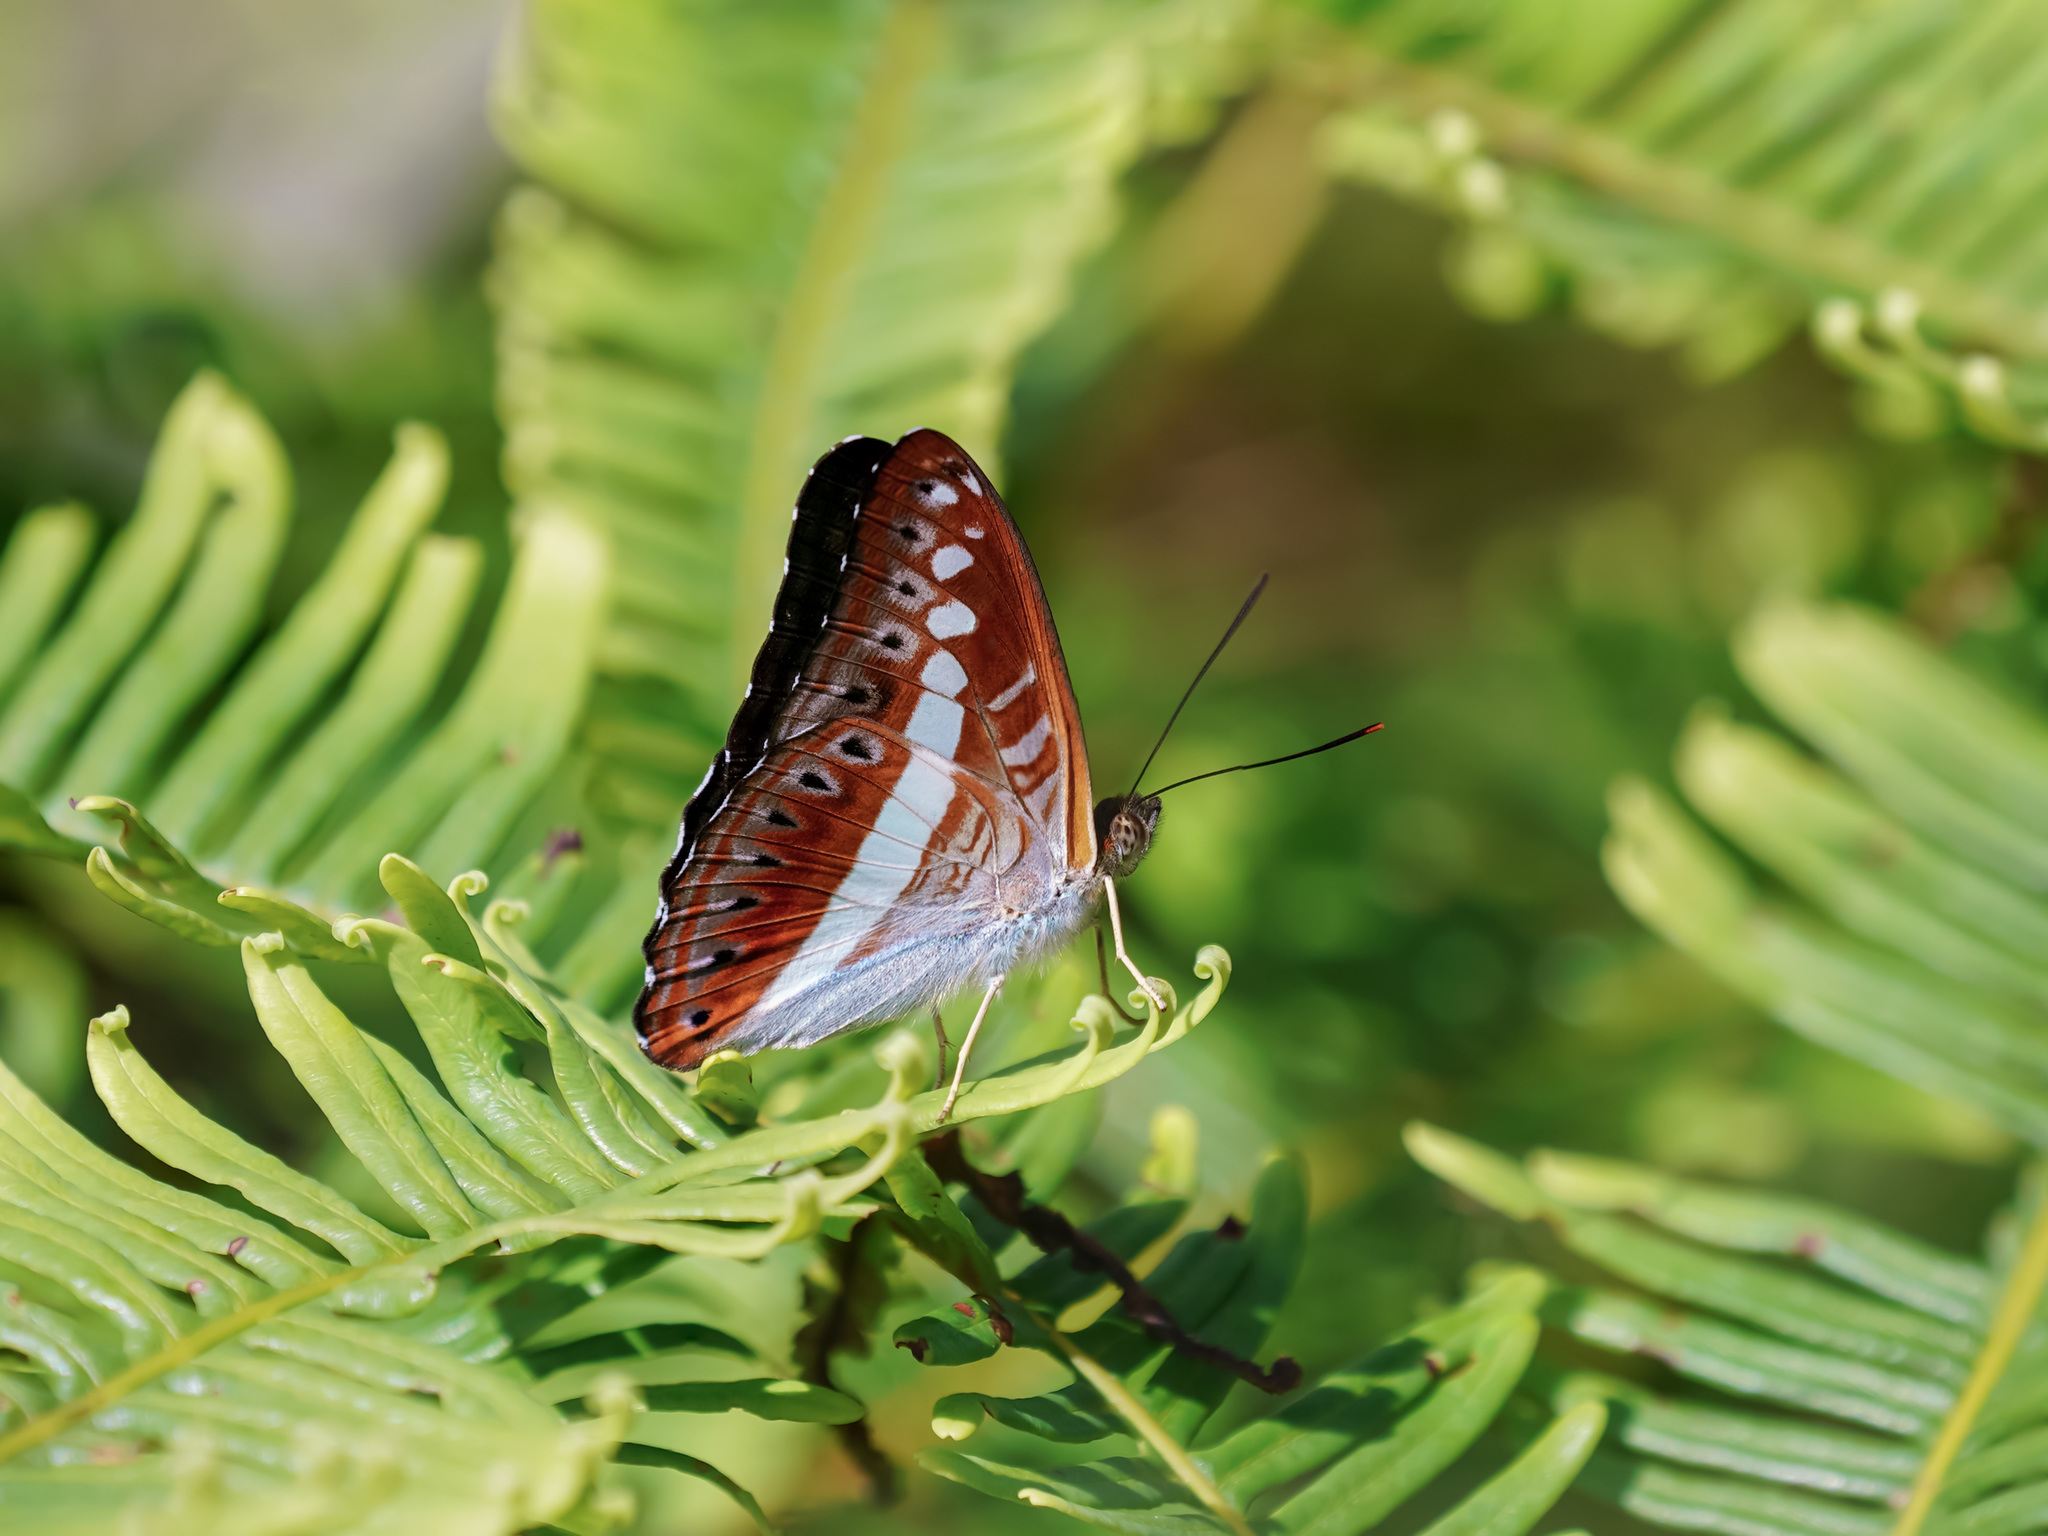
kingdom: Animalia
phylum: Arthropoda
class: Insecta
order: Lepidoptera
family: Nymphalidae
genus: Limenitis
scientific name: Limenitis Sumalia daraxa
